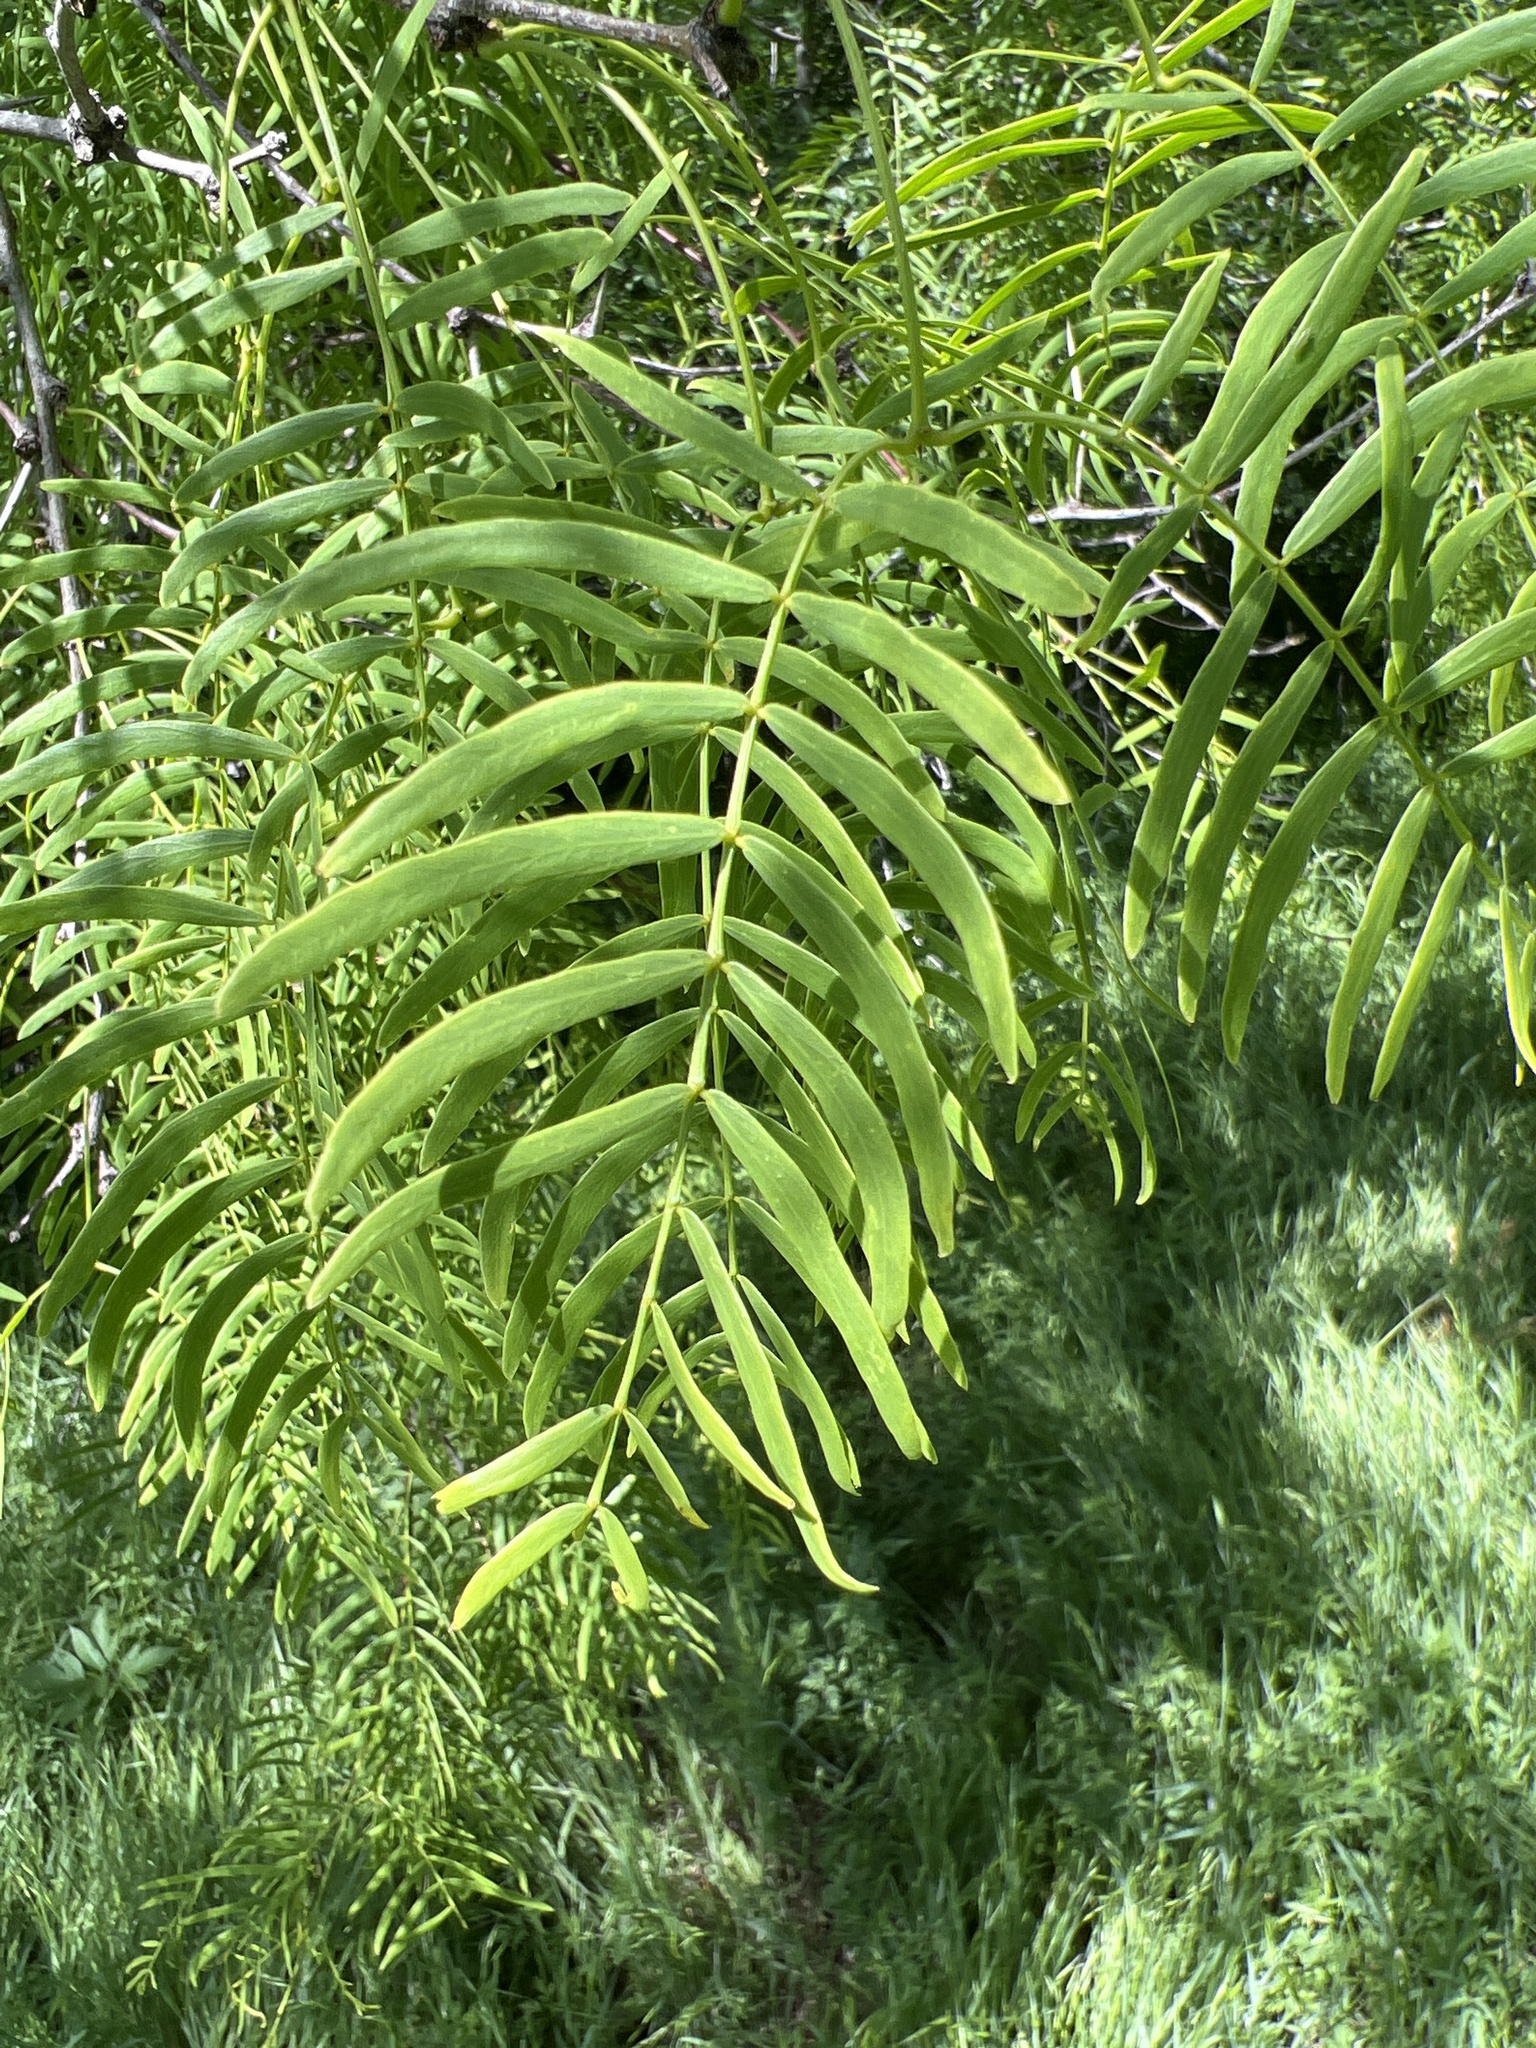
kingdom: Plantae
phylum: Tracheophyta
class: Magnoliopsida
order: Fabales
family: Fabaceae
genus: Prosopis
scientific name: Prosopis glandulosa
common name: Honey mesquite
